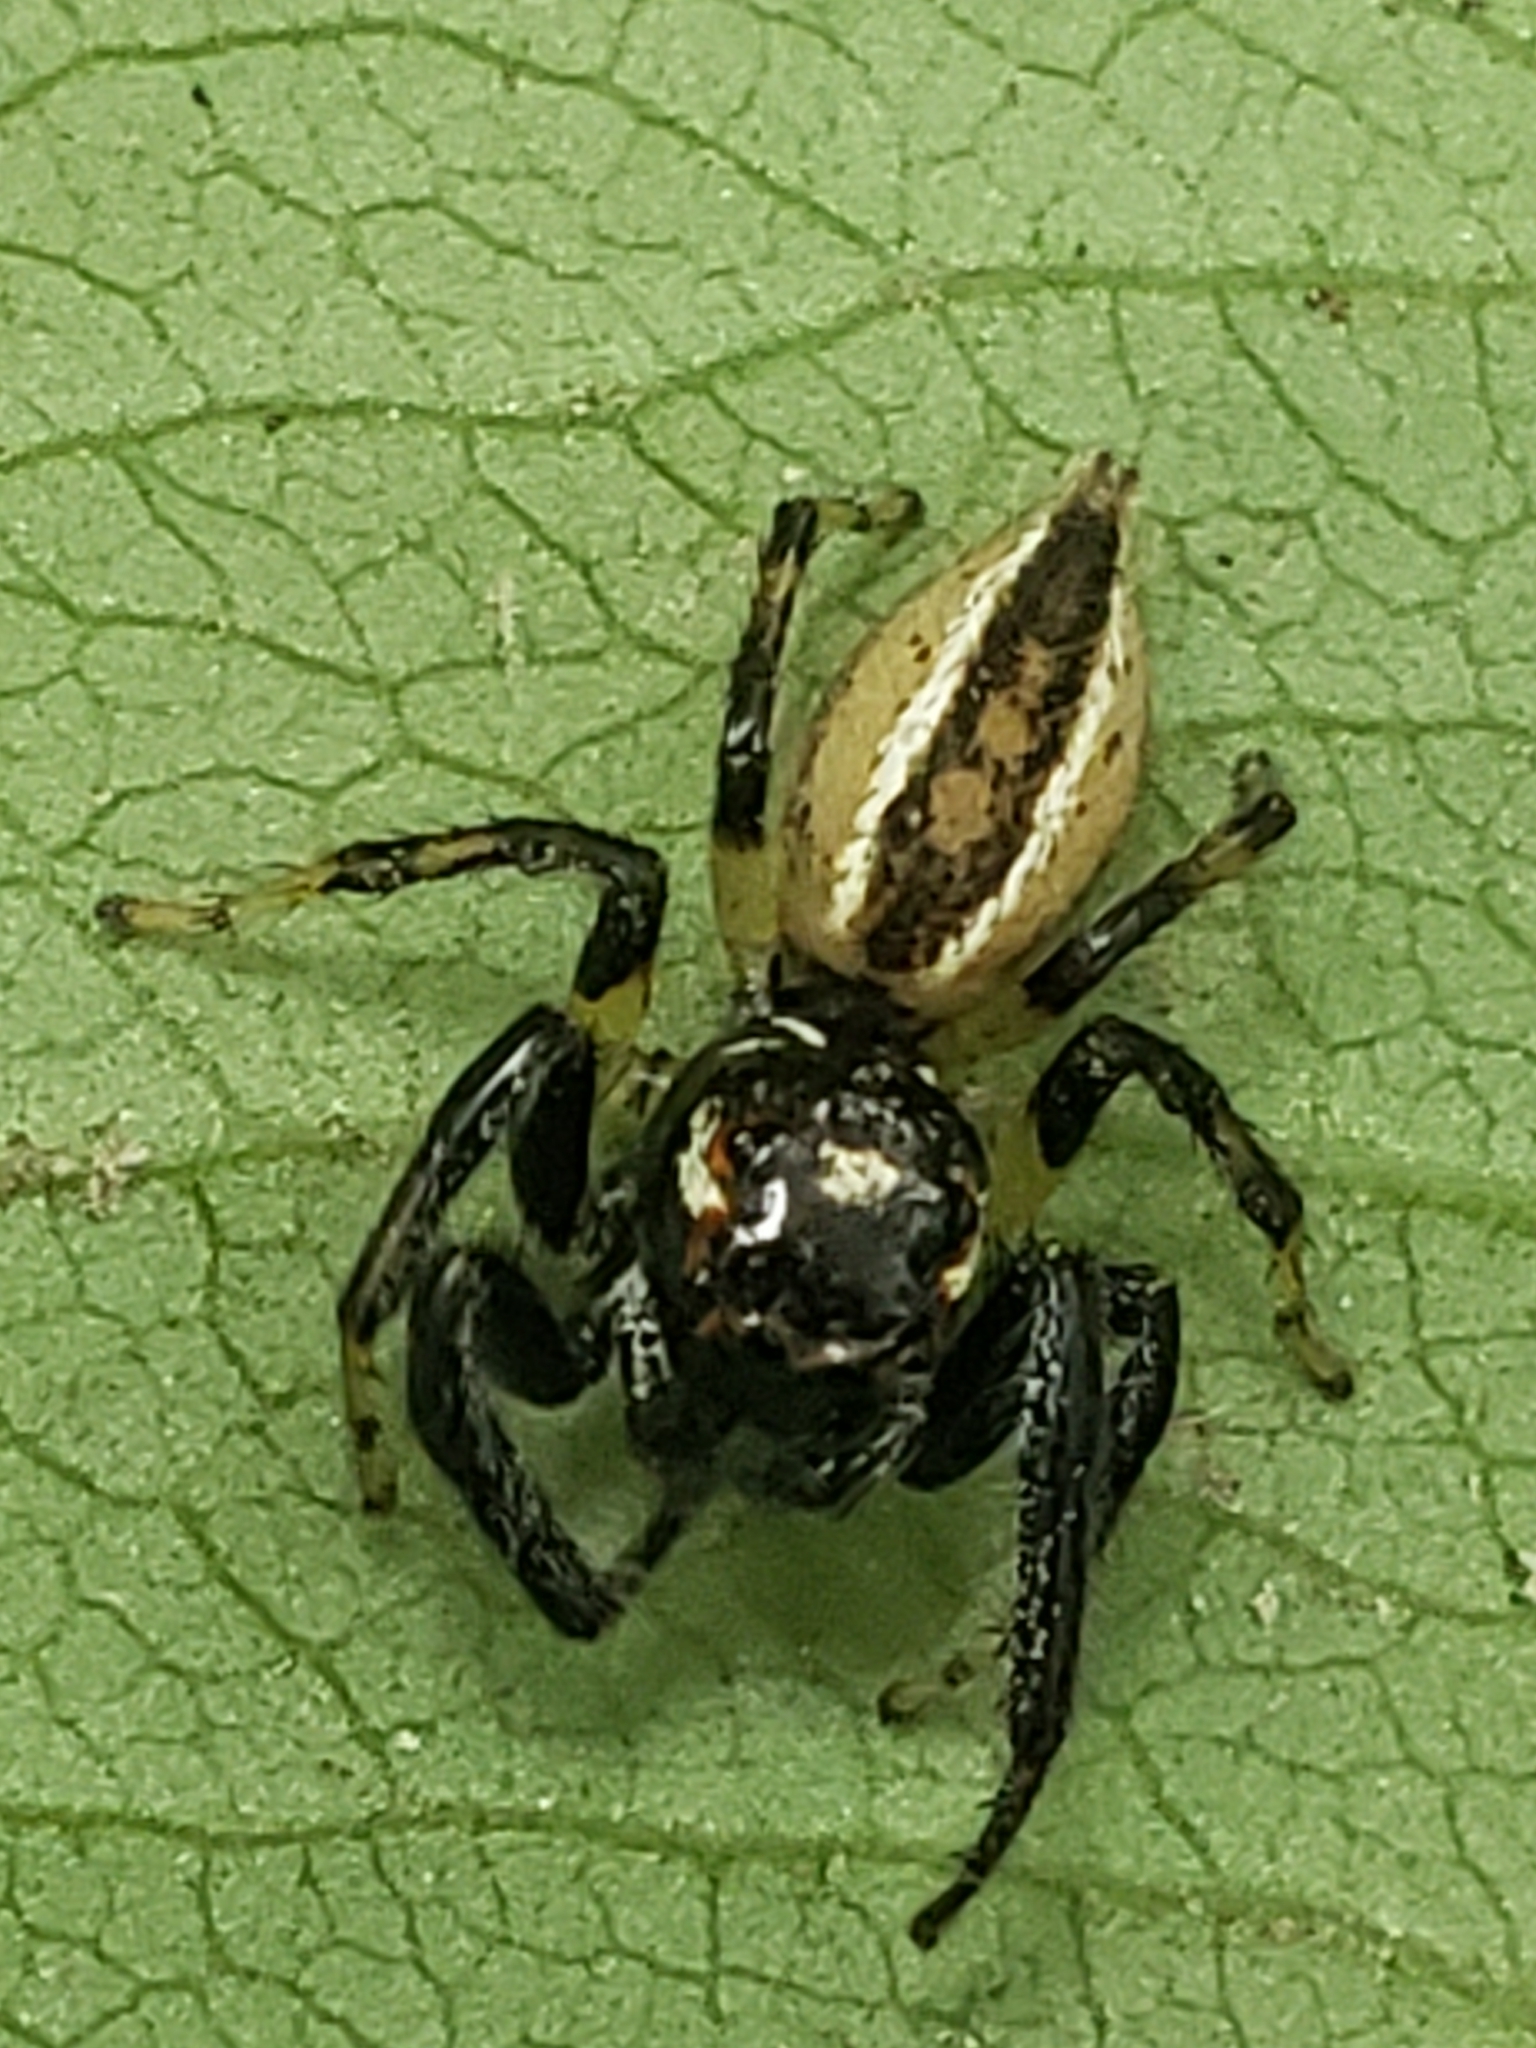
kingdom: Animalia
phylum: Arthropoda
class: Arachnida
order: Araneae
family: Salticidae
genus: Colonus
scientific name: Colonus sylvanus
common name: Jumping spiders
